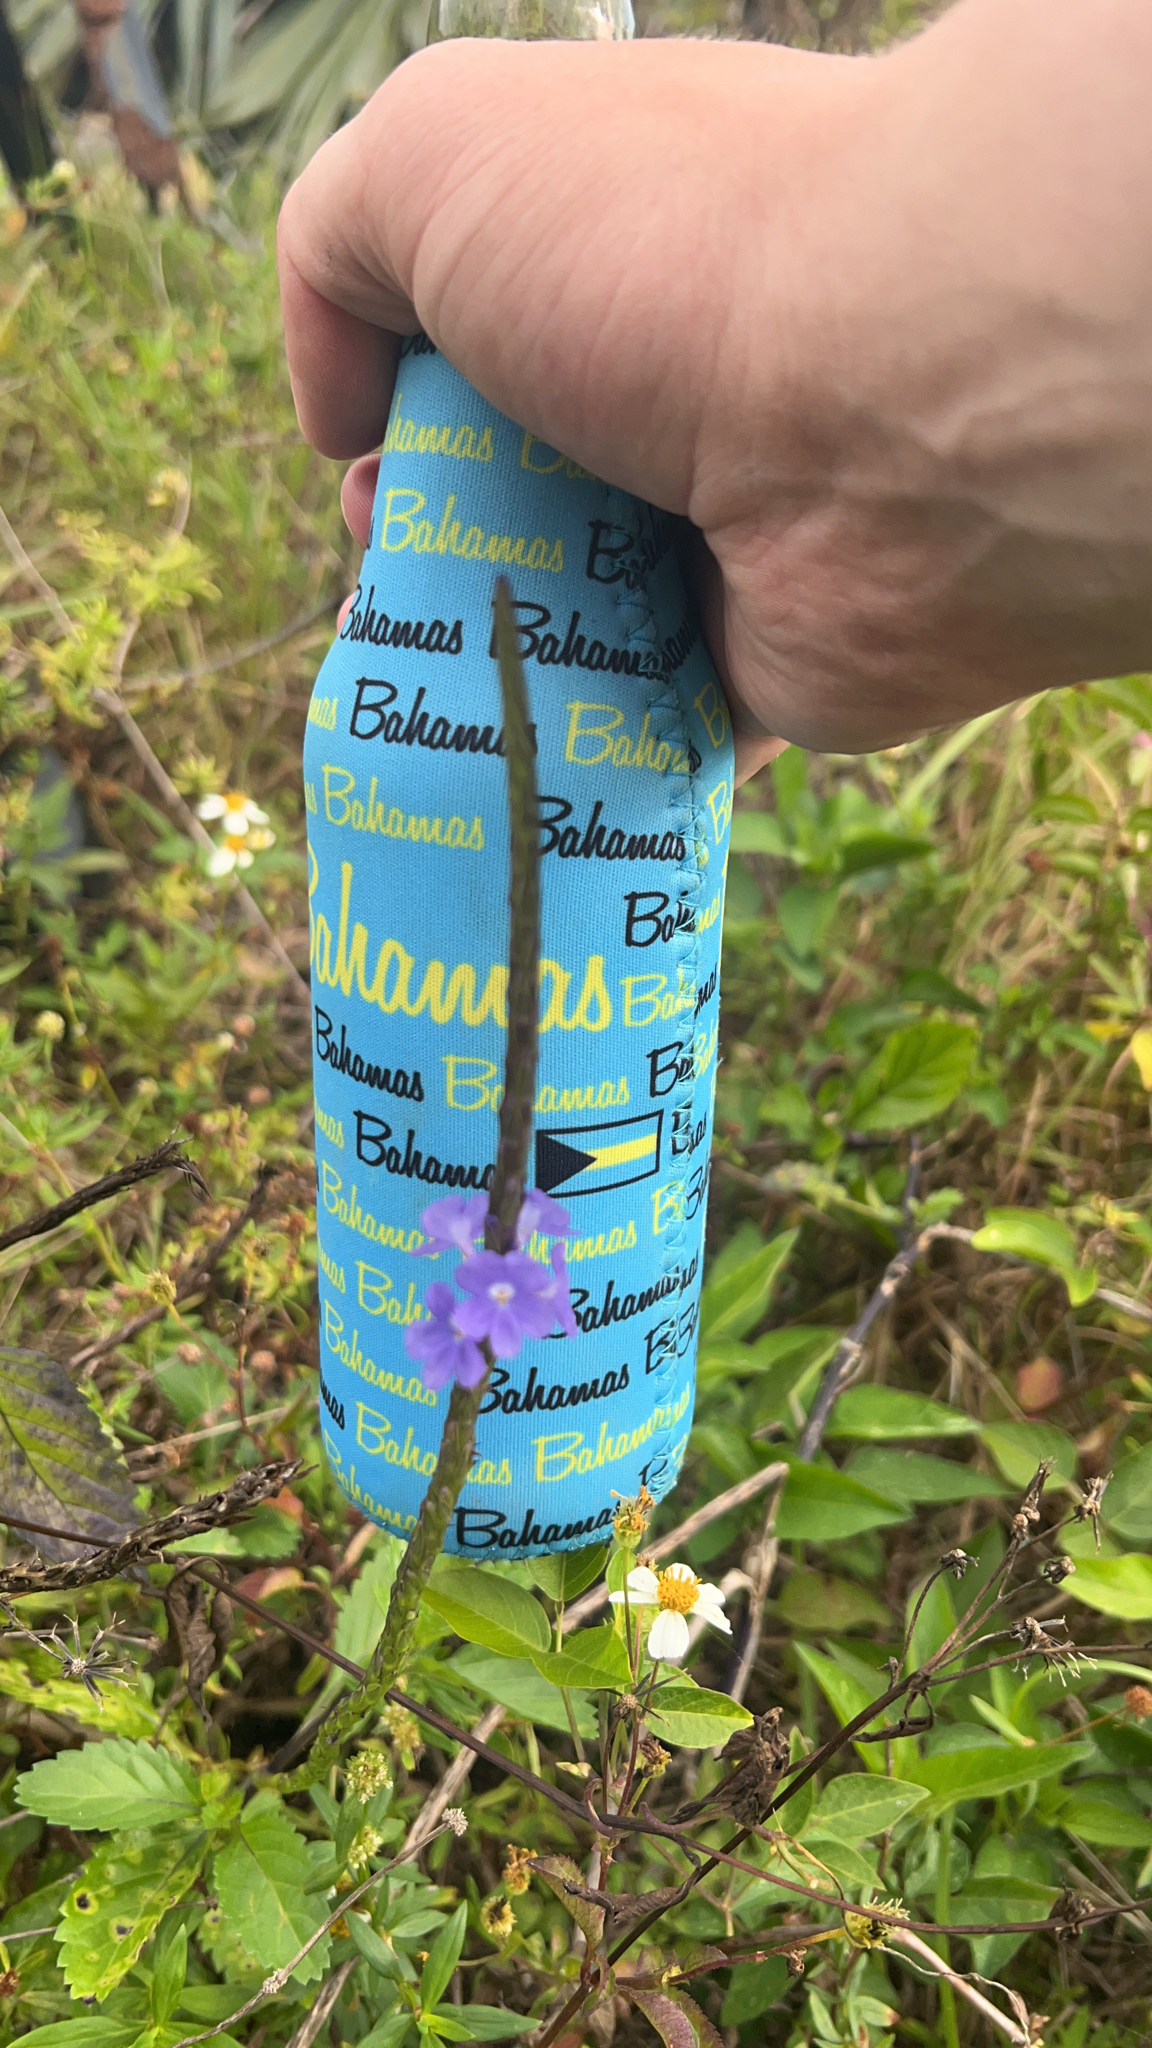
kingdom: Plantae
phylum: Tracheophyta
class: Magnoliopsida
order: Lamiales
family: Verbenaceae
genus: Stachytarpheta
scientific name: Stachytarpheta jamaicensis
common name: Light-blue snakeweed
